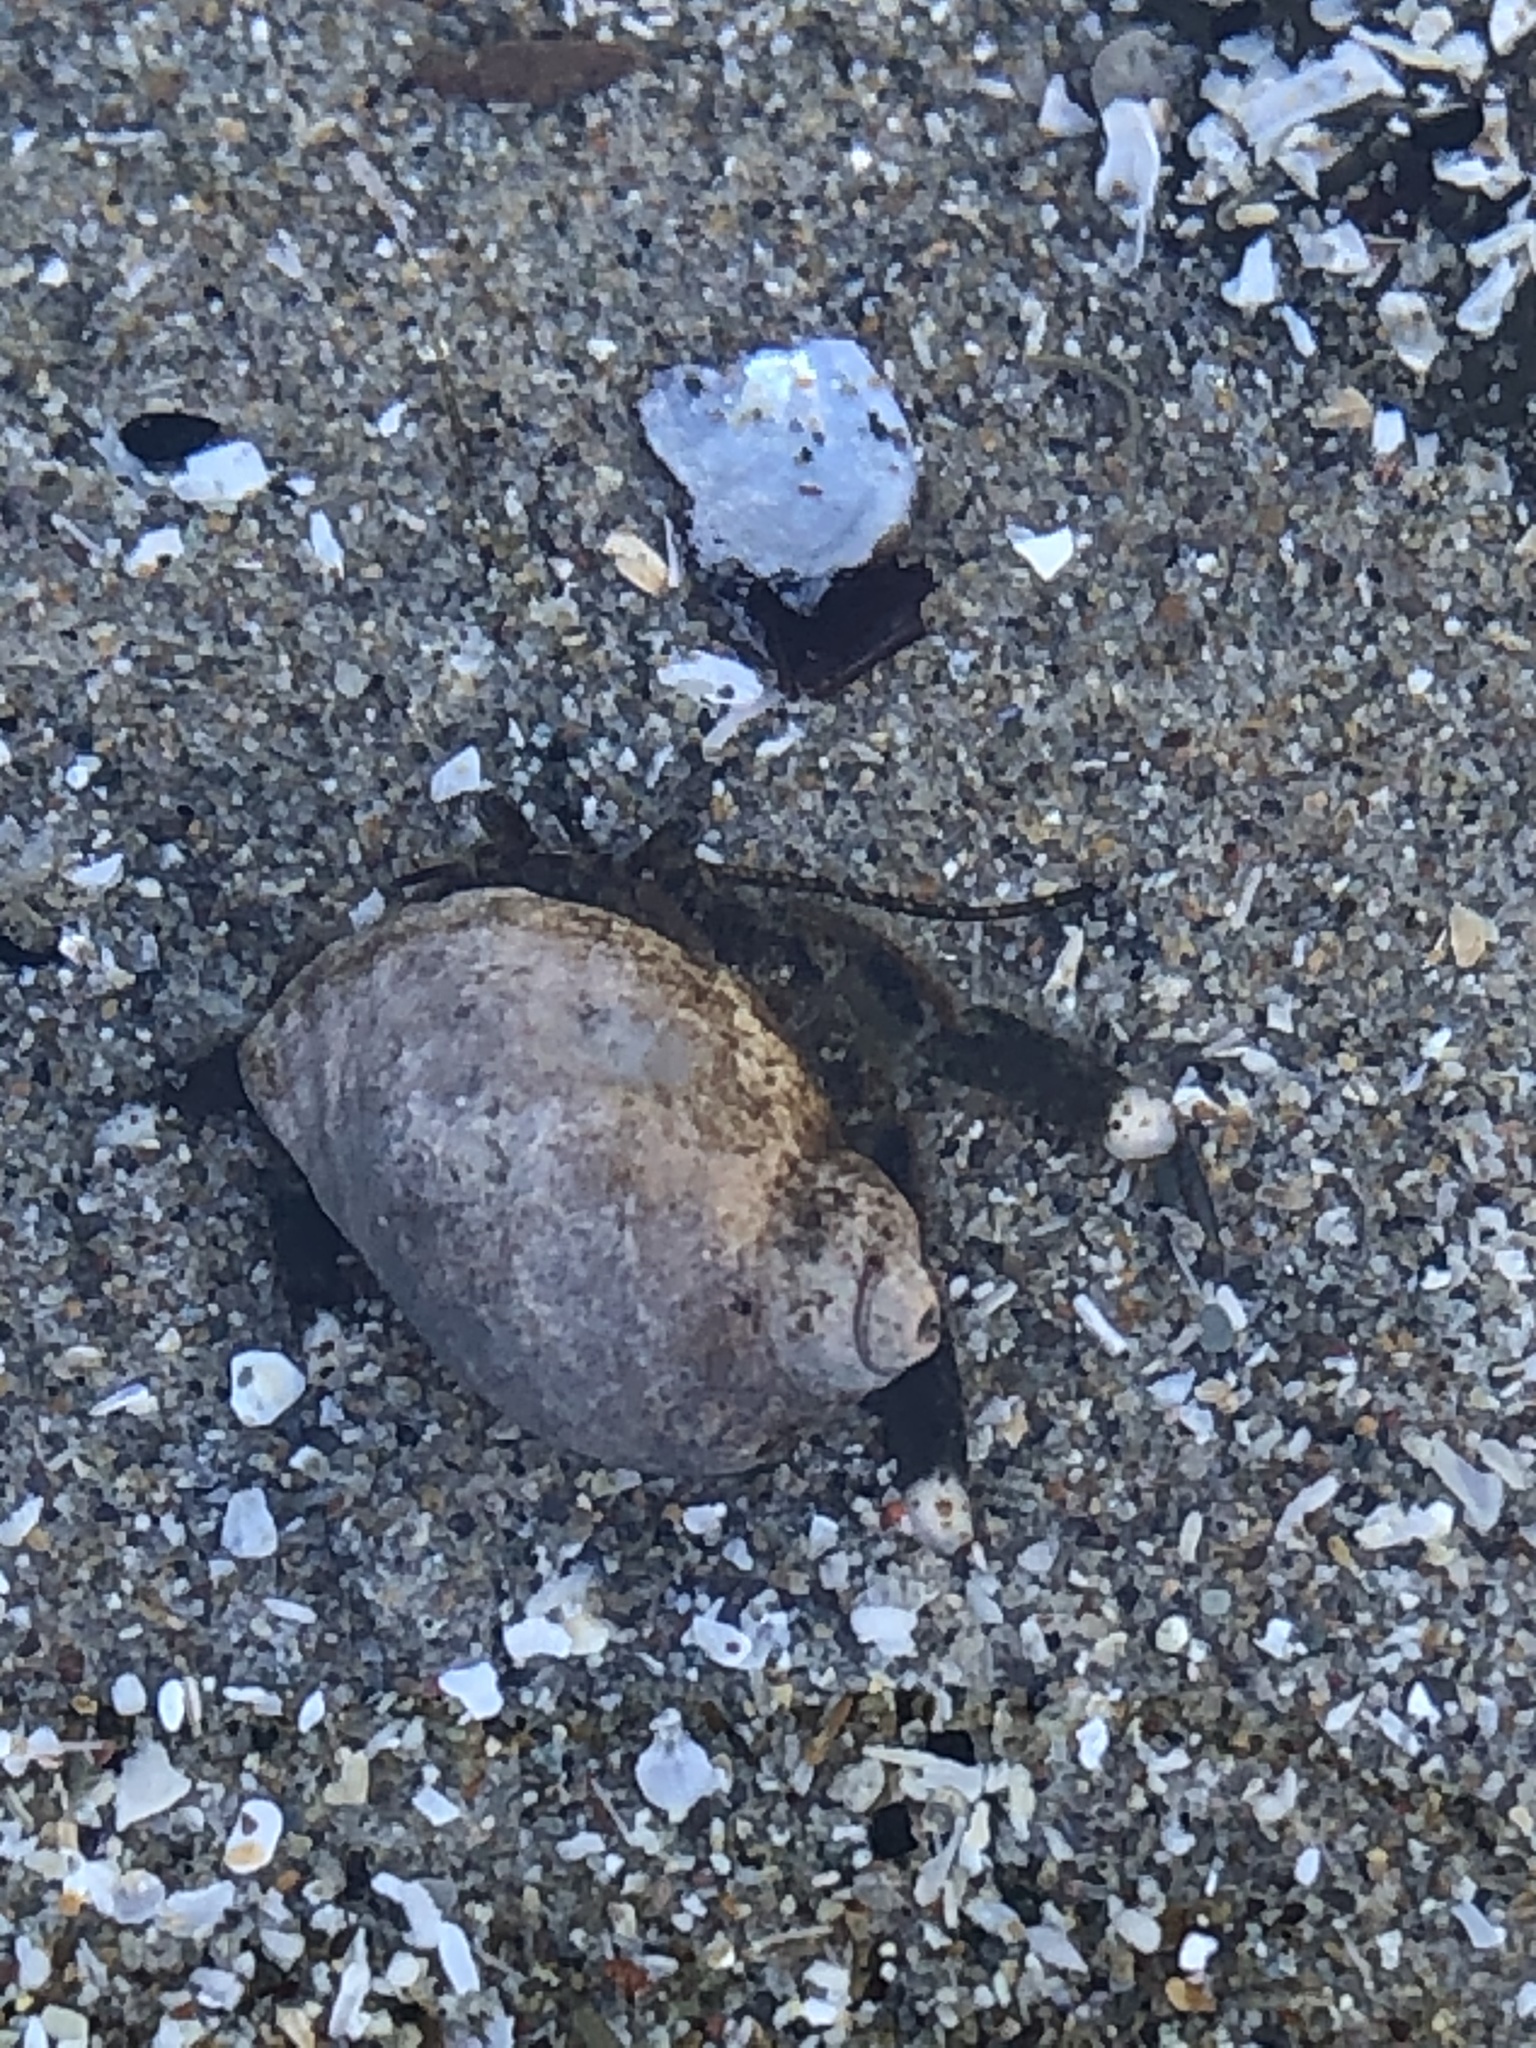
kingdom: Animalia
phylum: Arthropoda
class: Malacostraca
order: Decapoda
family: Paguridae
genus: Pagurus
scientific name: Pagurus hirsutiusculus
